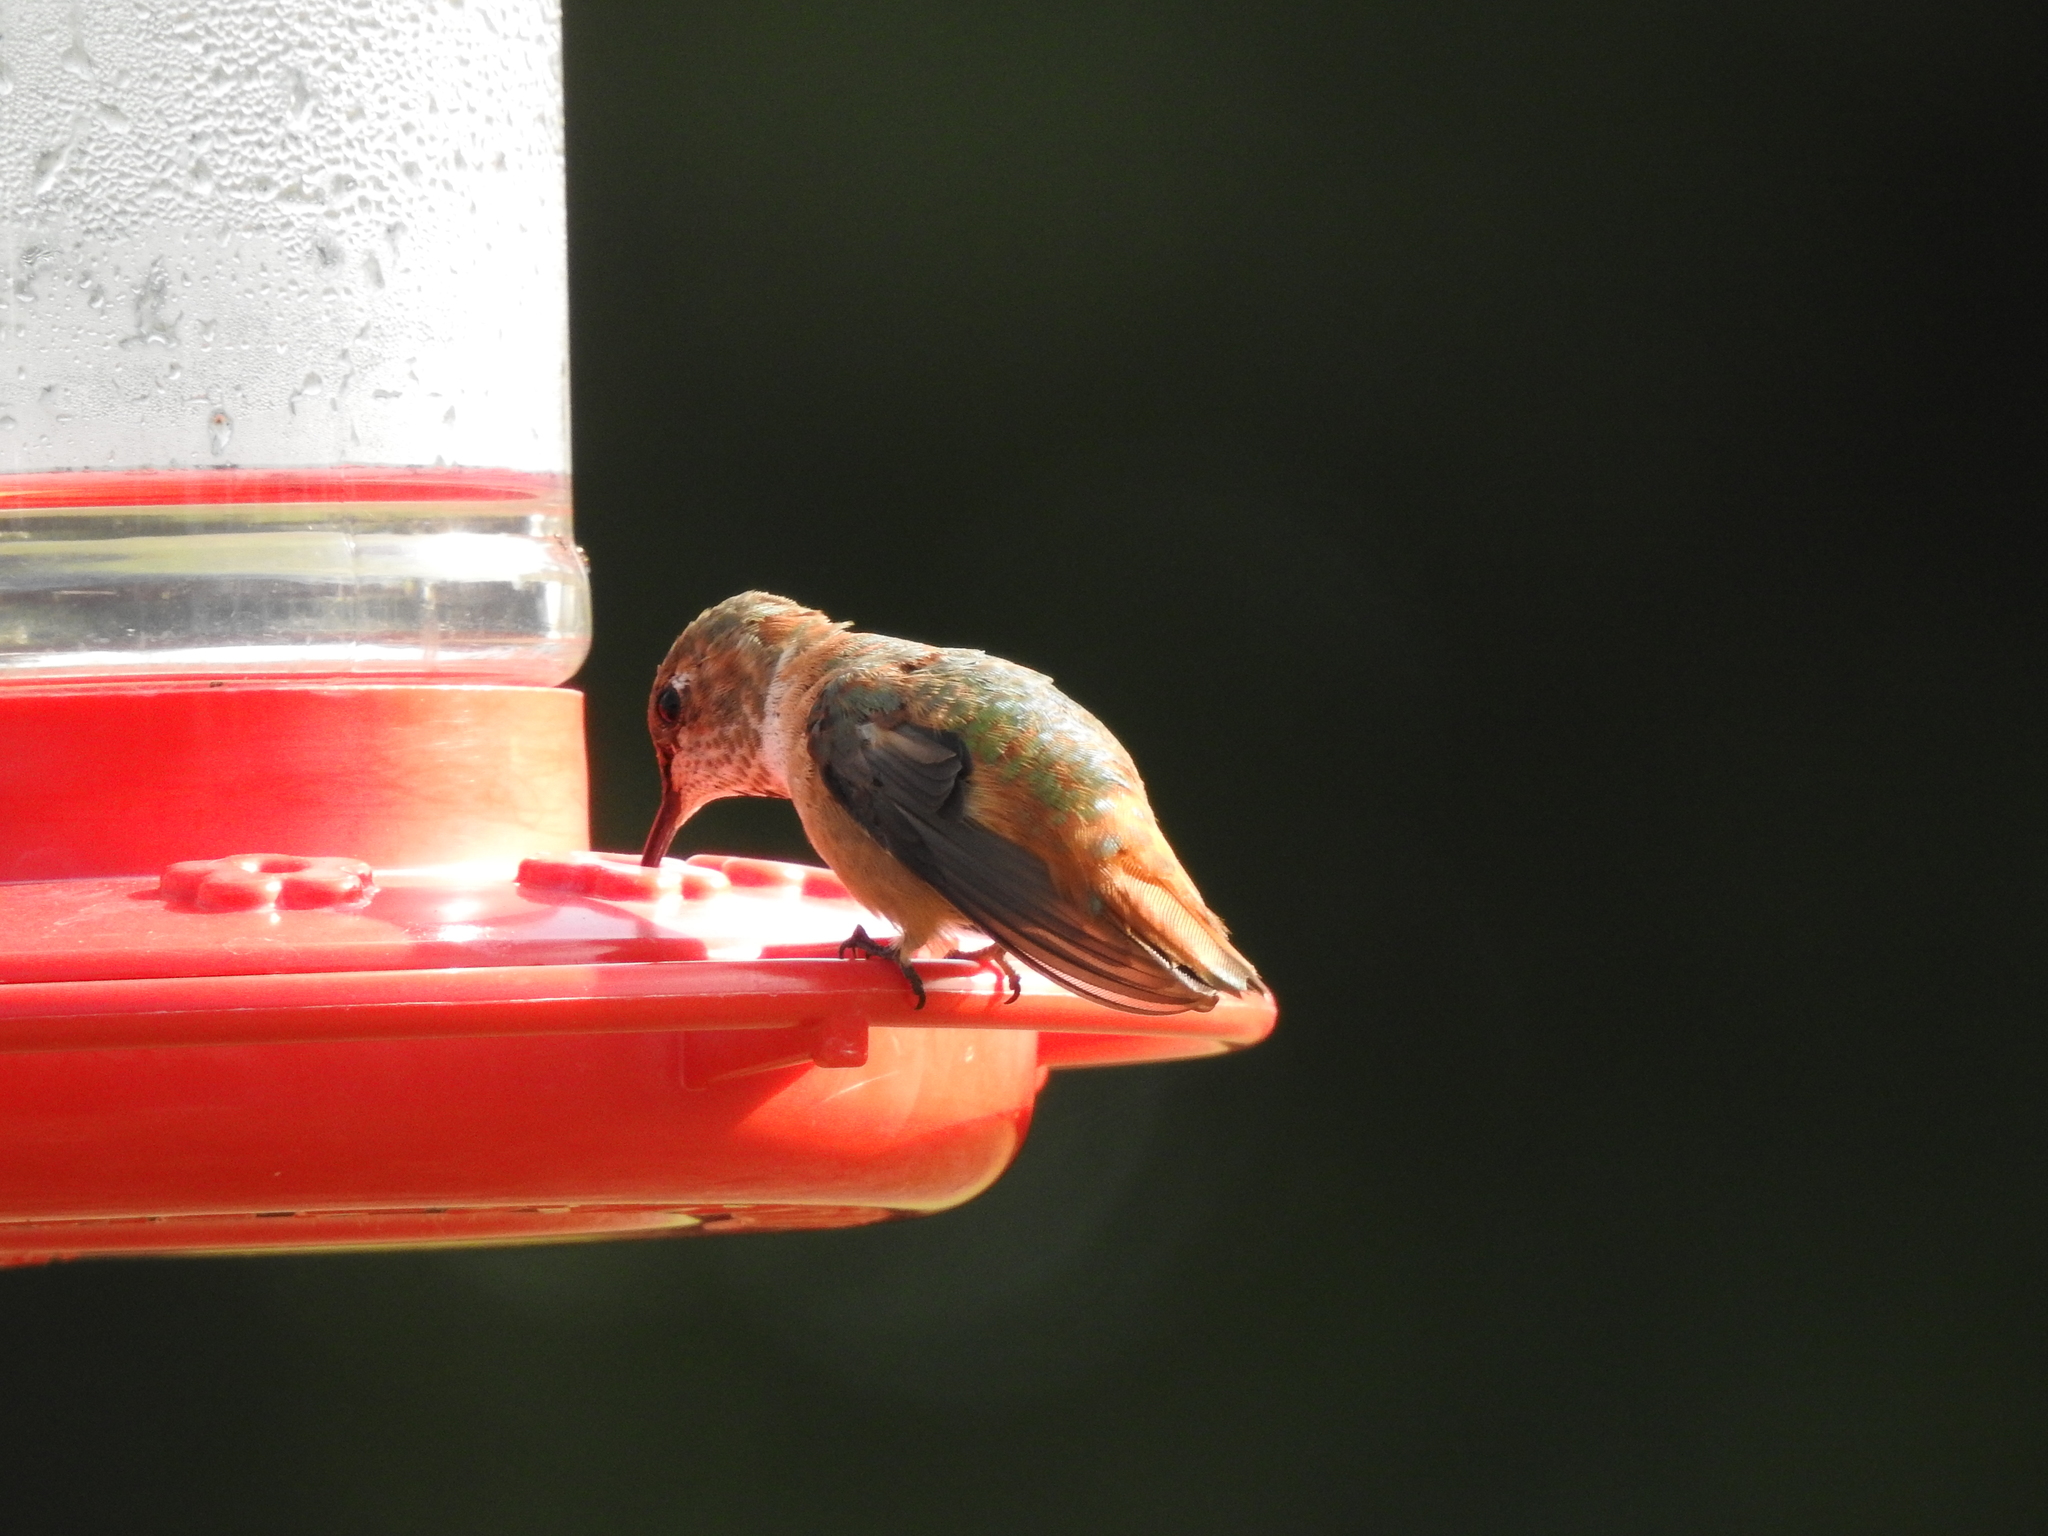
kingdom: Animalia
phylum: Chordata
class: Aves
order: Apodiformes
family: Trochilidae
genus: Selasphorus
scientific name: Selasphorus rufus
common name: Rufous hummingbird
